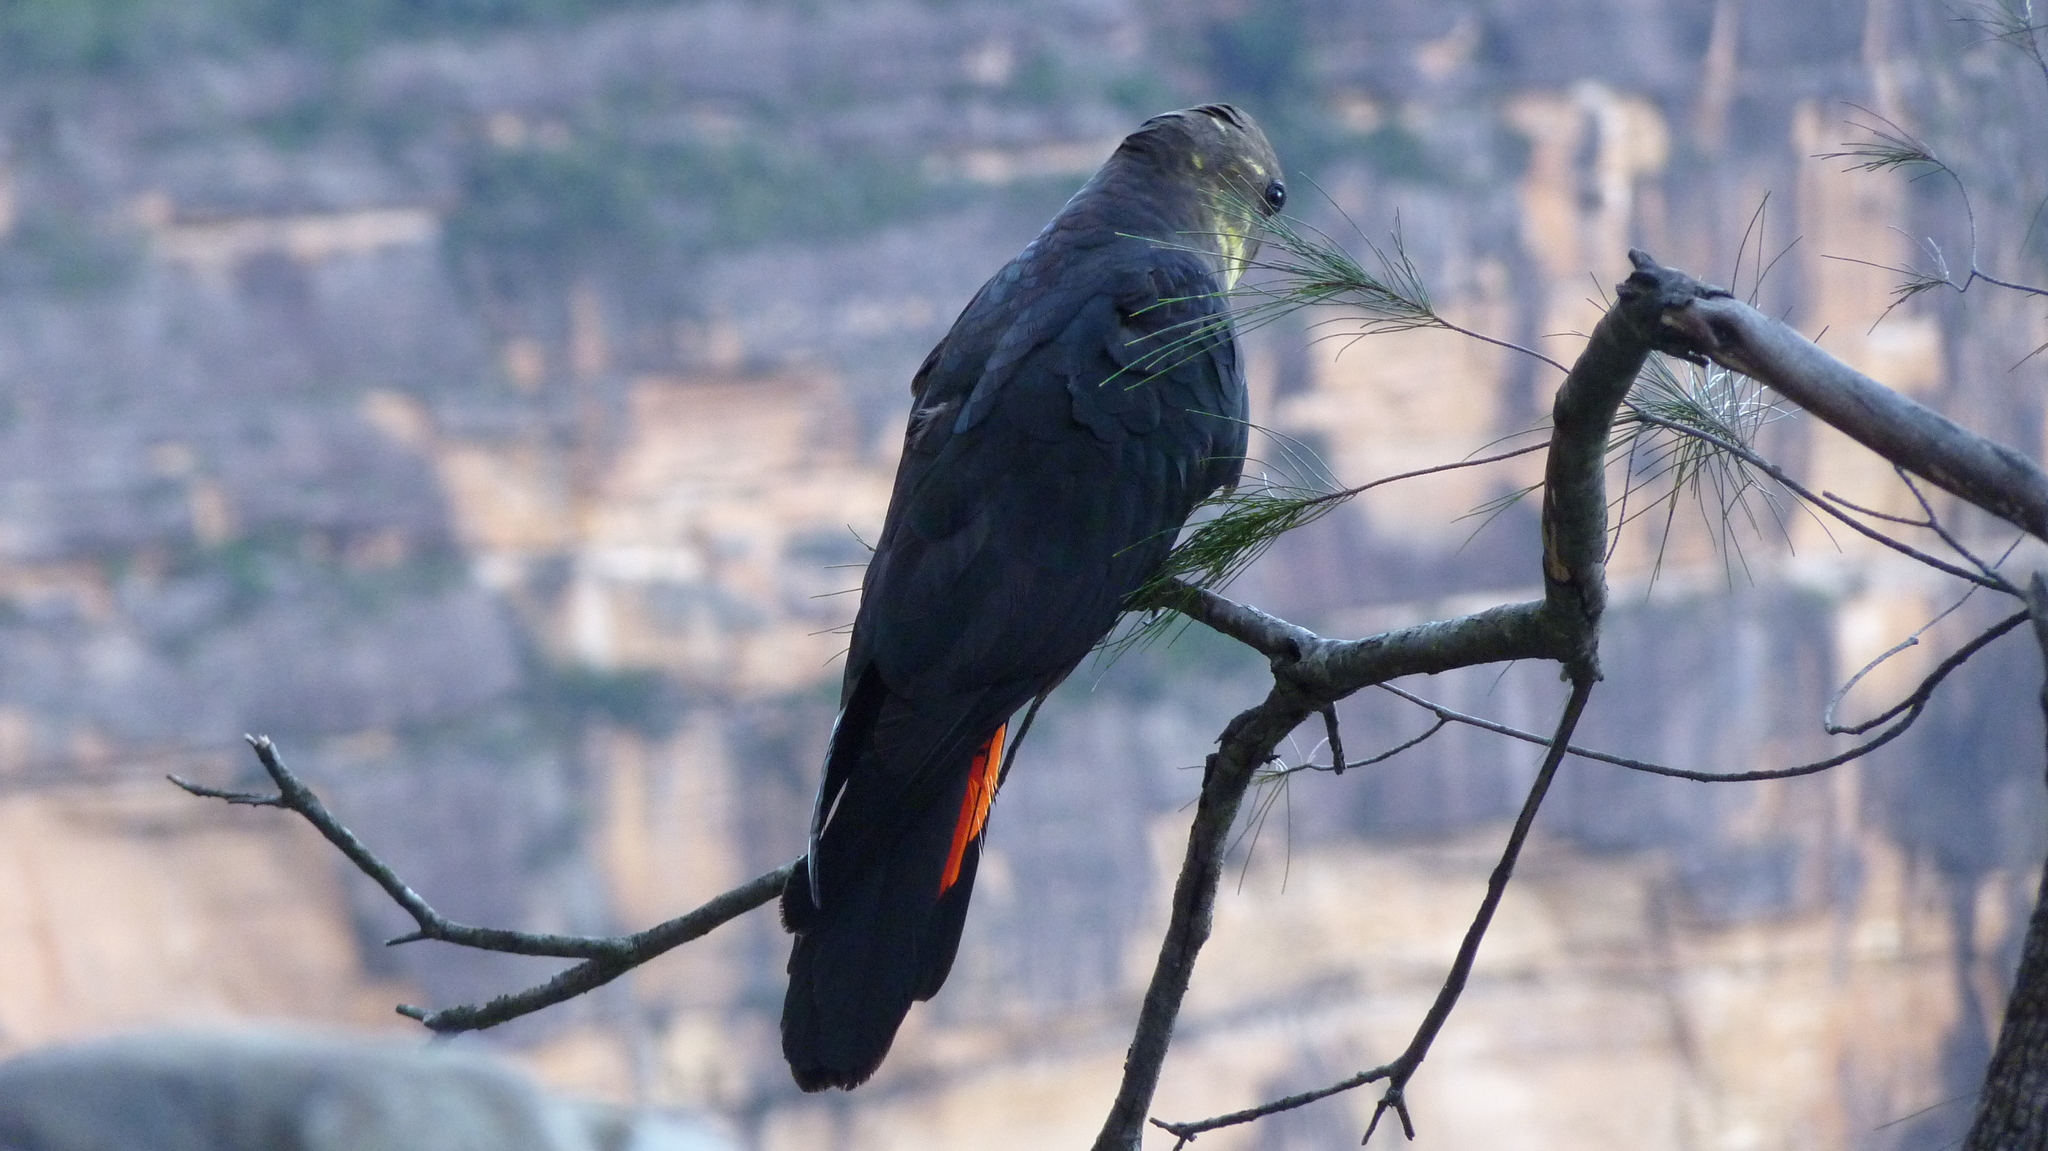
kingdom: Animalia
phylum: Chordata
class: Aves
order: Psittaciformes
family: Psittacidae
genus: Calyptorhynchus
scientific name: Calyptorhynchus lathami
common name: Glossy black cockatoo
